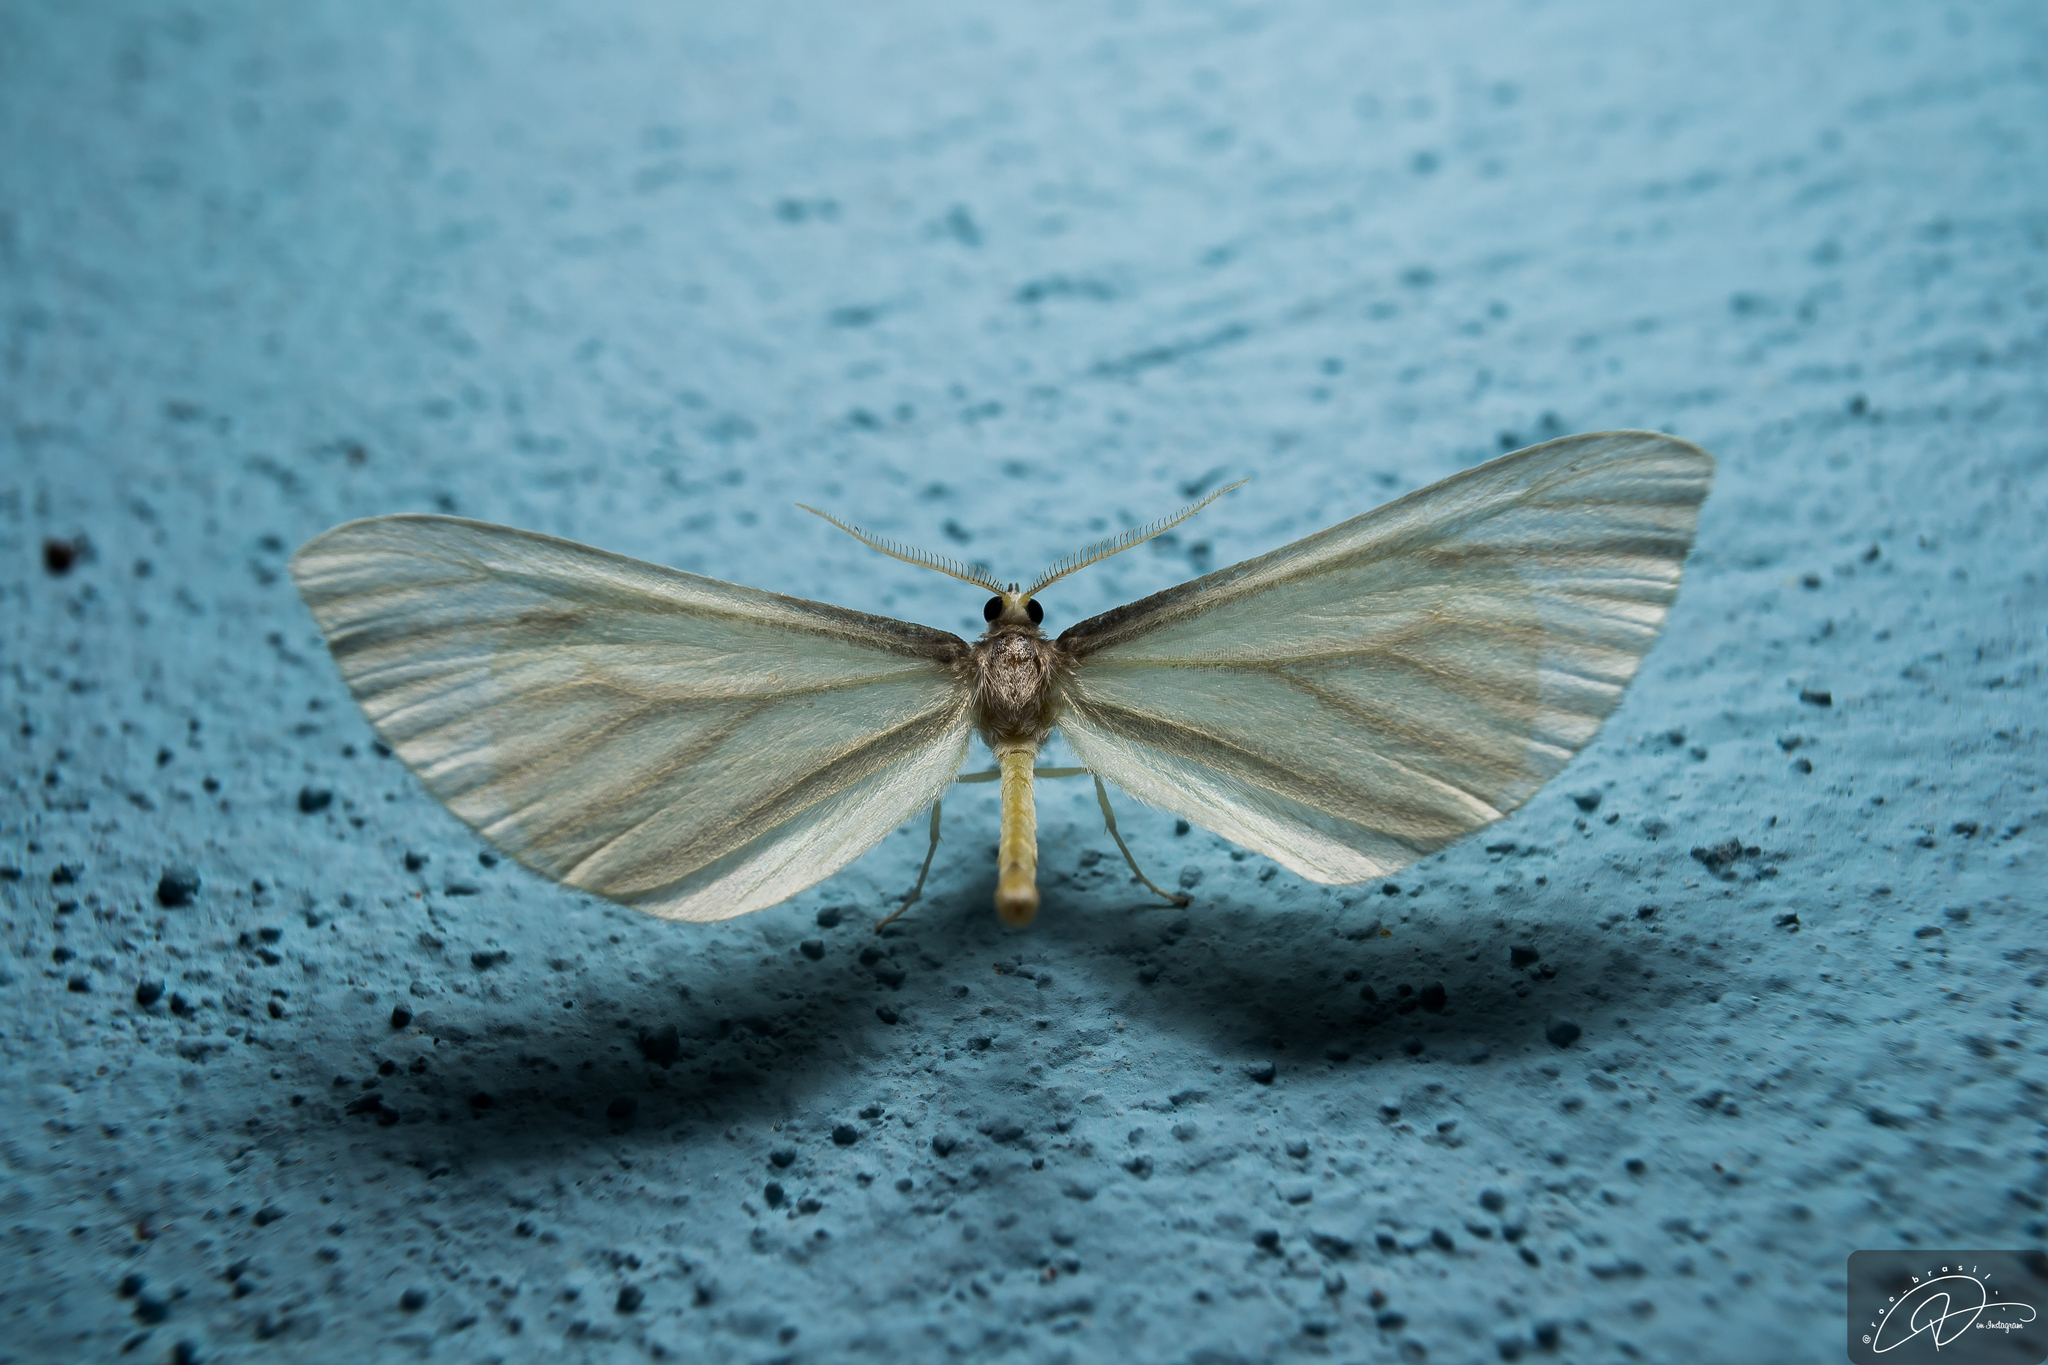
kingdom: Animalia
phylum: Arthropoda
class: Insecta
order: Lepidoptera
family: Hedylidae
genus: Macrosoma
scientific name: Macrosoma napiaria
